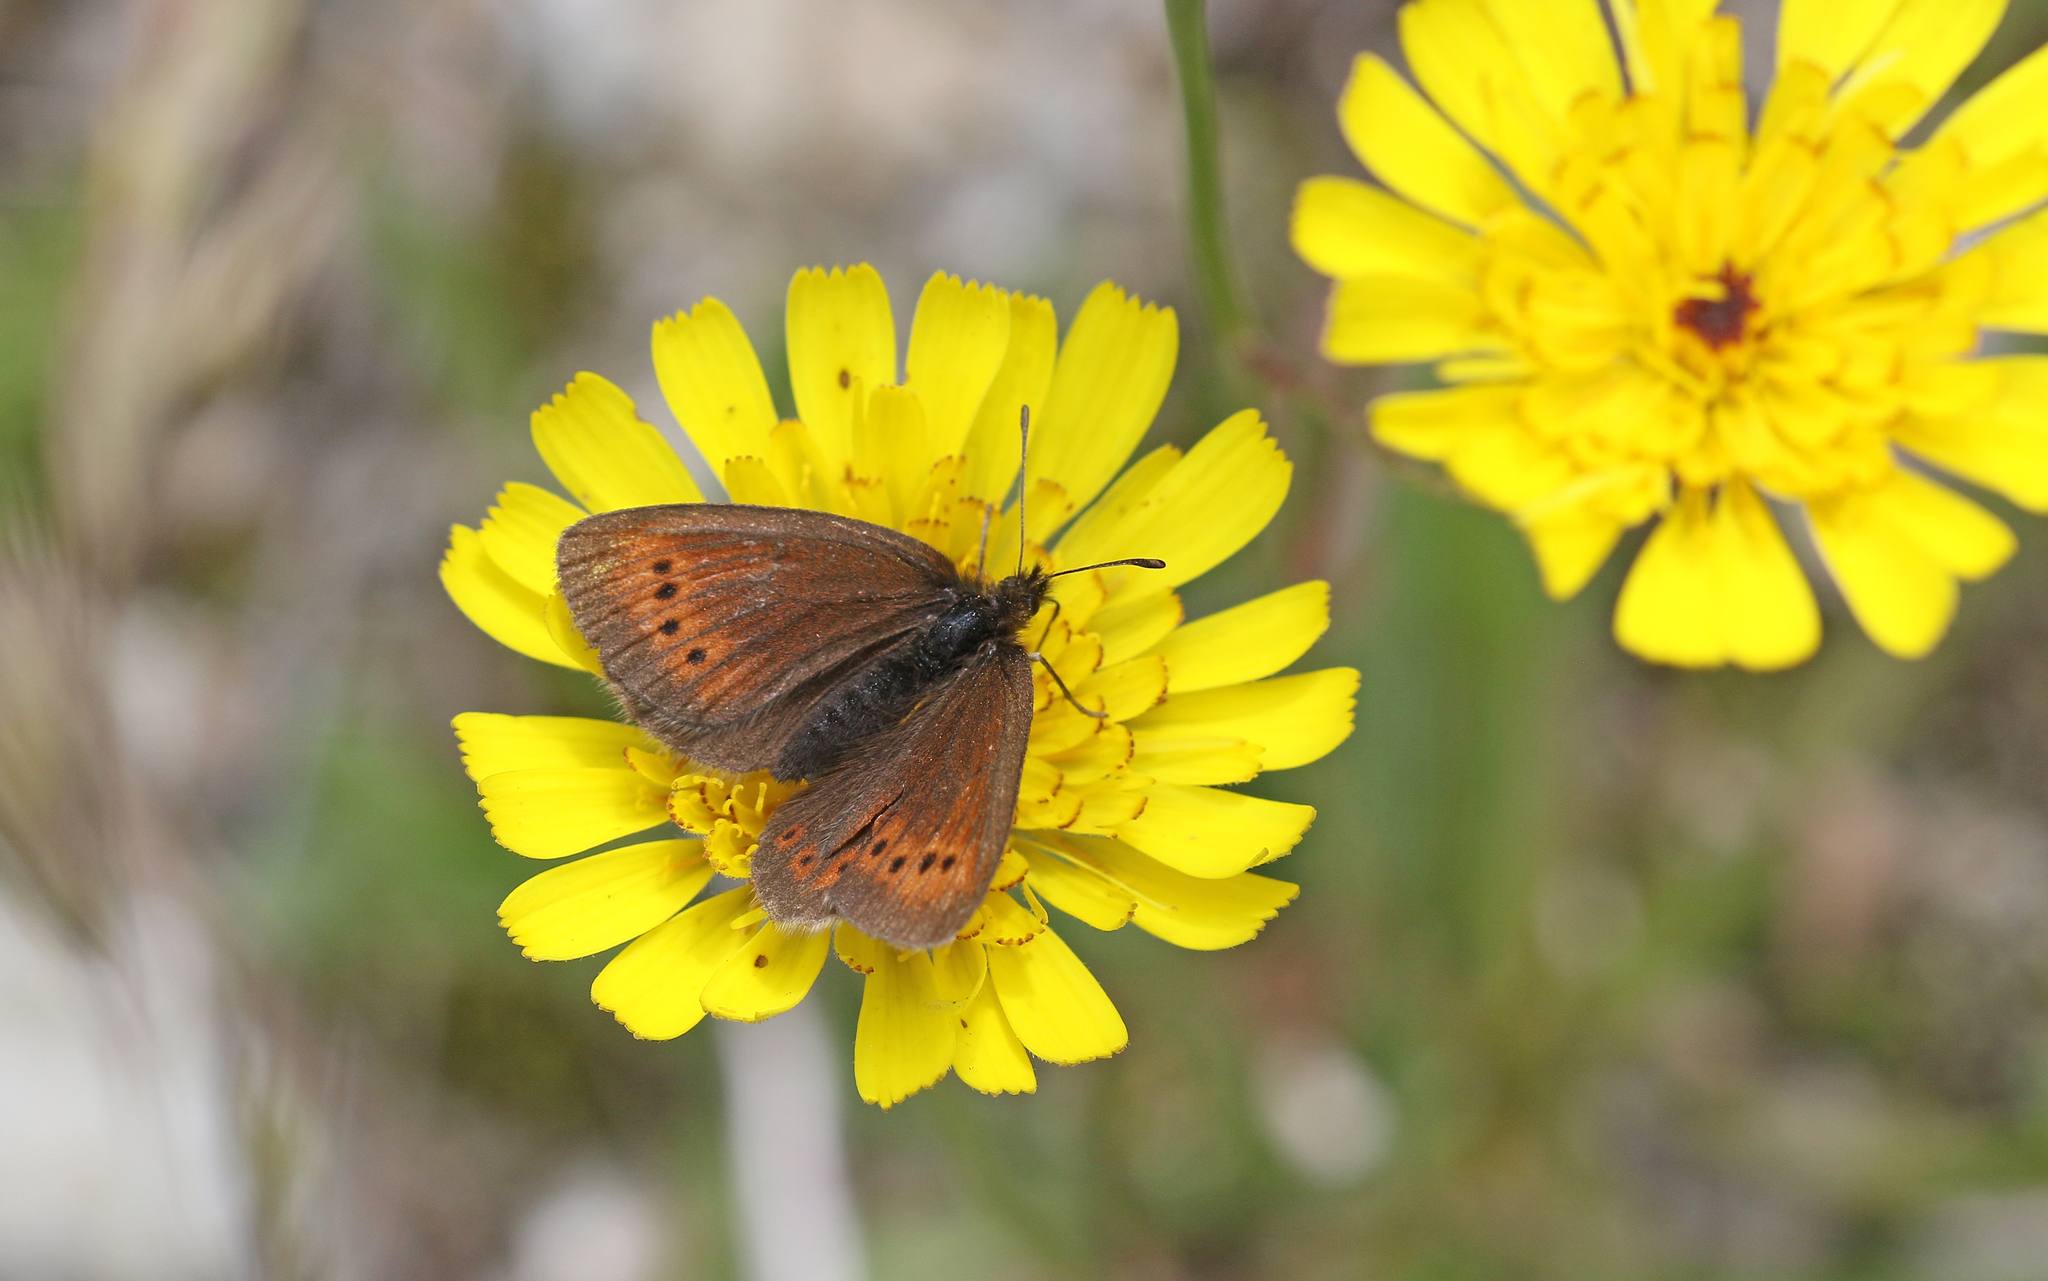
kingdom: Animalia
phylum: Arthropoda
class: Insecta
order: Lepidoptera
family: Nymphalidae
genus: Erebia
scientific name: Erebia epiphron
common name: Mountain ringlet
